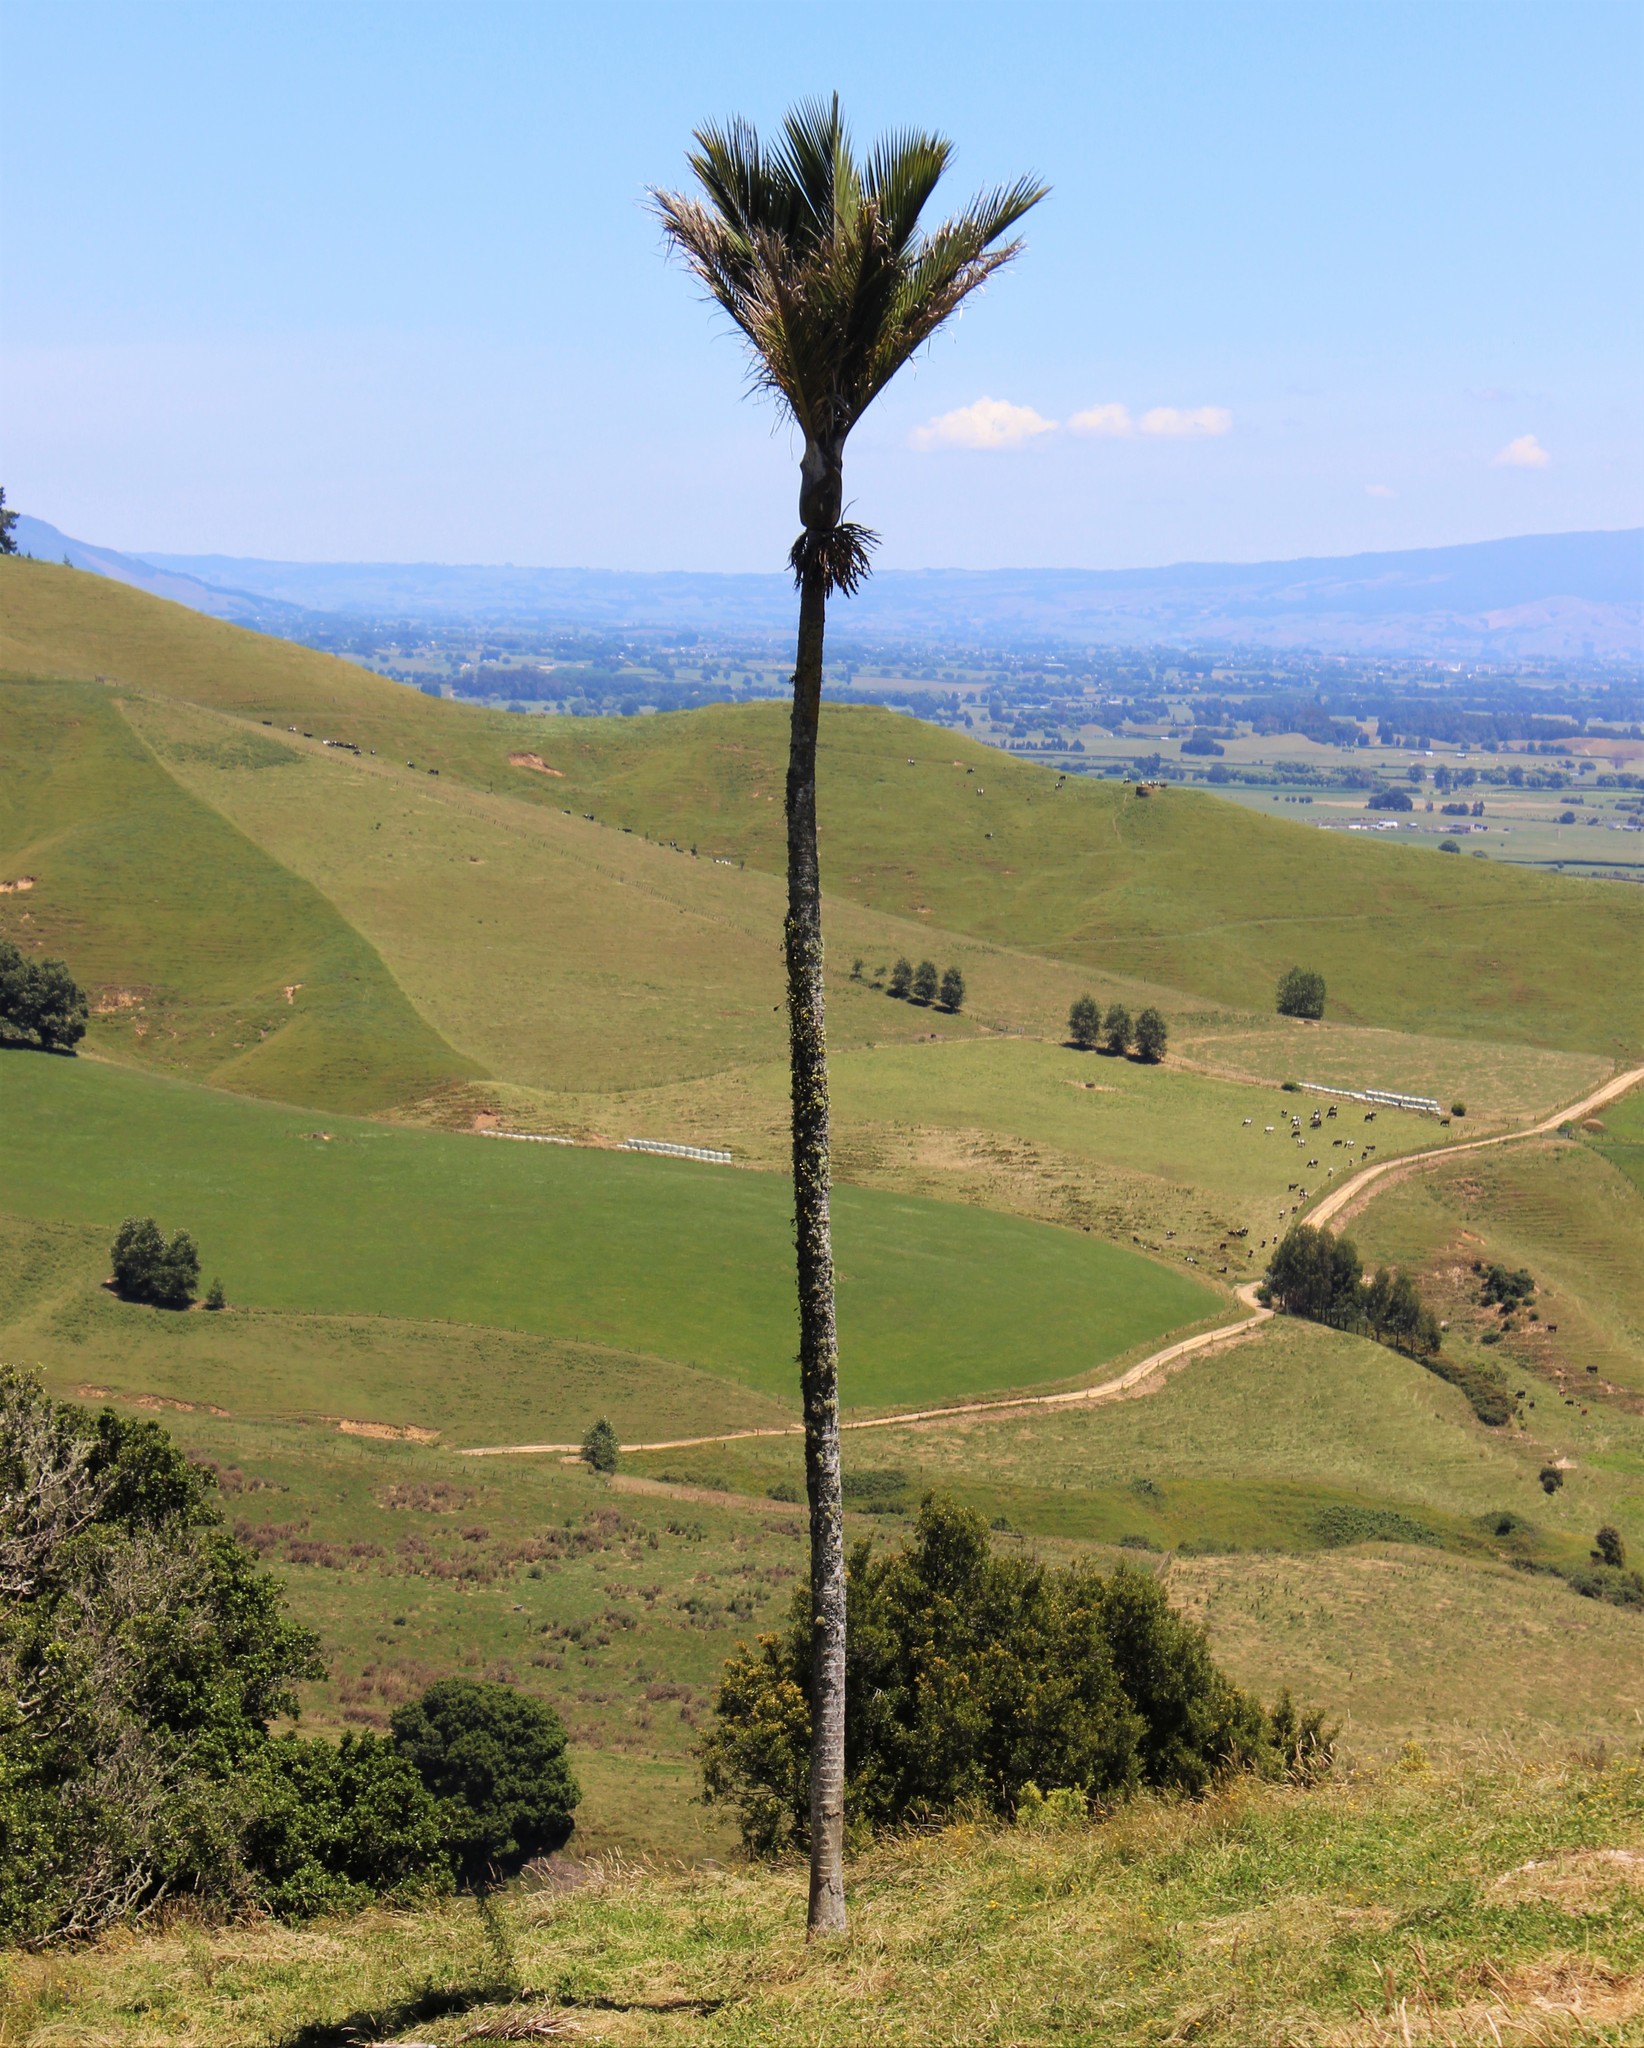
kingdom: Plantae
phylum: Tracheophyta
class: Liliopsida
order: Arecales
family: Arecaceae
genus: Rhopalostylis
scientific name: Rhopalostylis sapida
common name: Feather-duster palm
